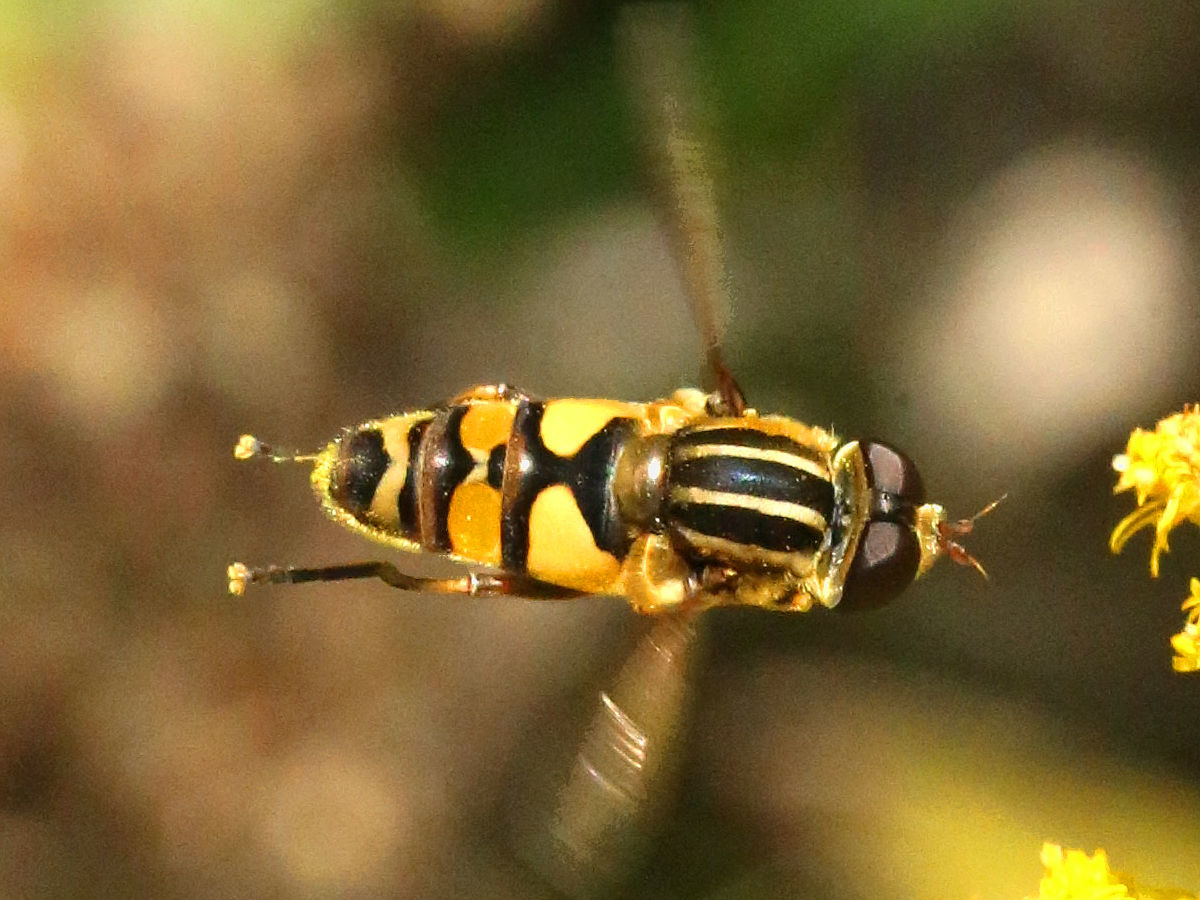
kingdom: Animalia
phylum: Arthropoda
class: Insecta
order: Diptera
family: Syrphidae
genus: Helophilus
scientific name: Helophilus fasciatus
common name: Narrow-headed marsh fly
